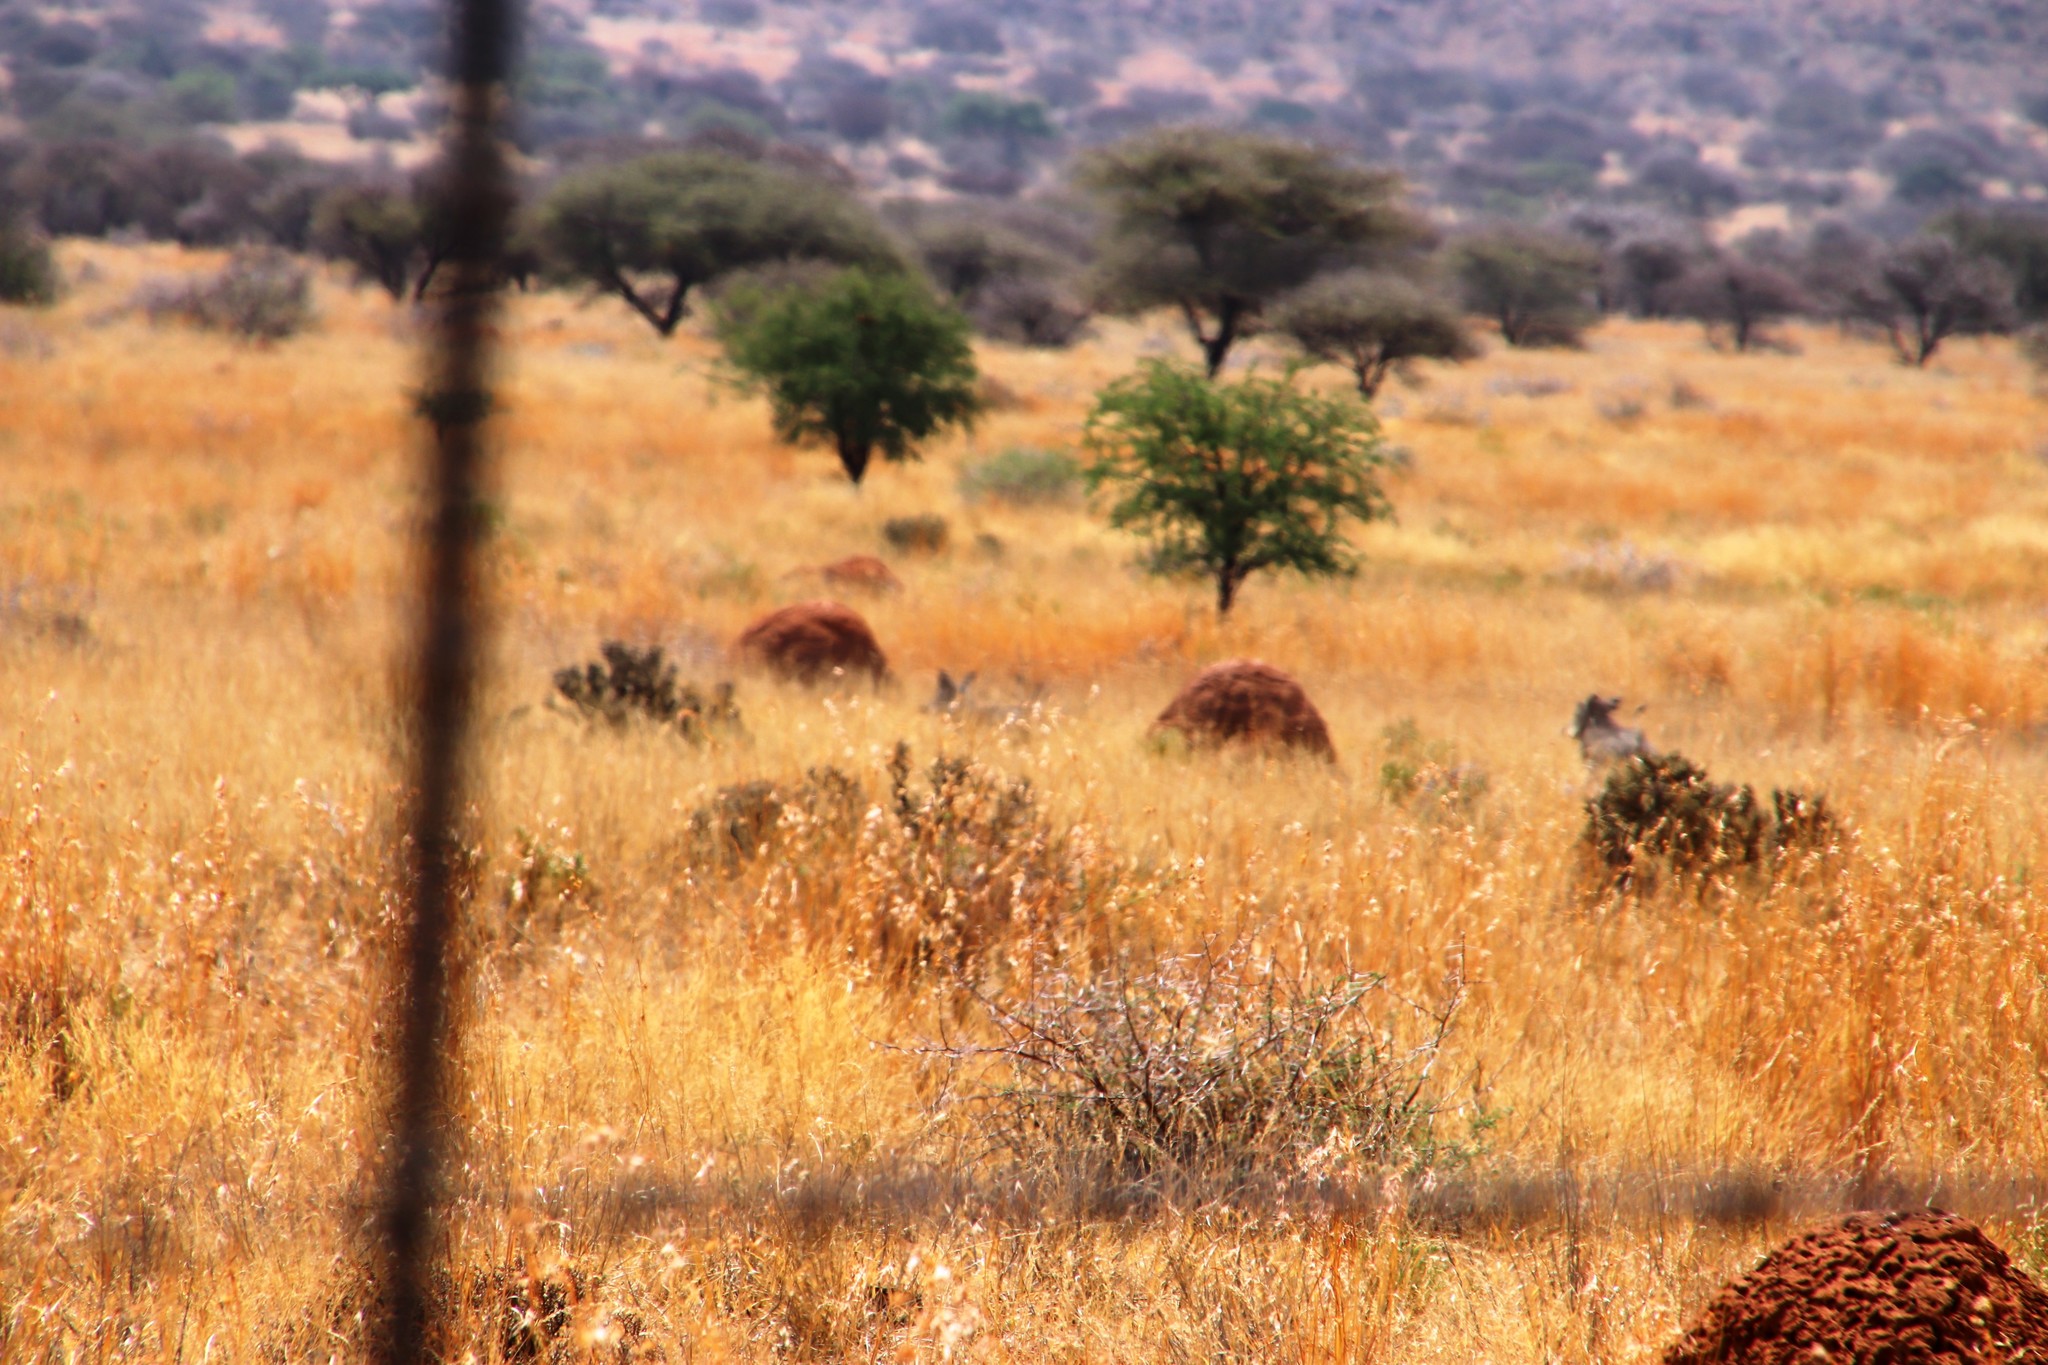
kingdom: Animalia
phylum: Chordata
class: Mammalia
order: Artiodactyla
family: Suidae
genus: Phacochoerus
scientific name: Phacochoerus africanus
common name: Common warthog
